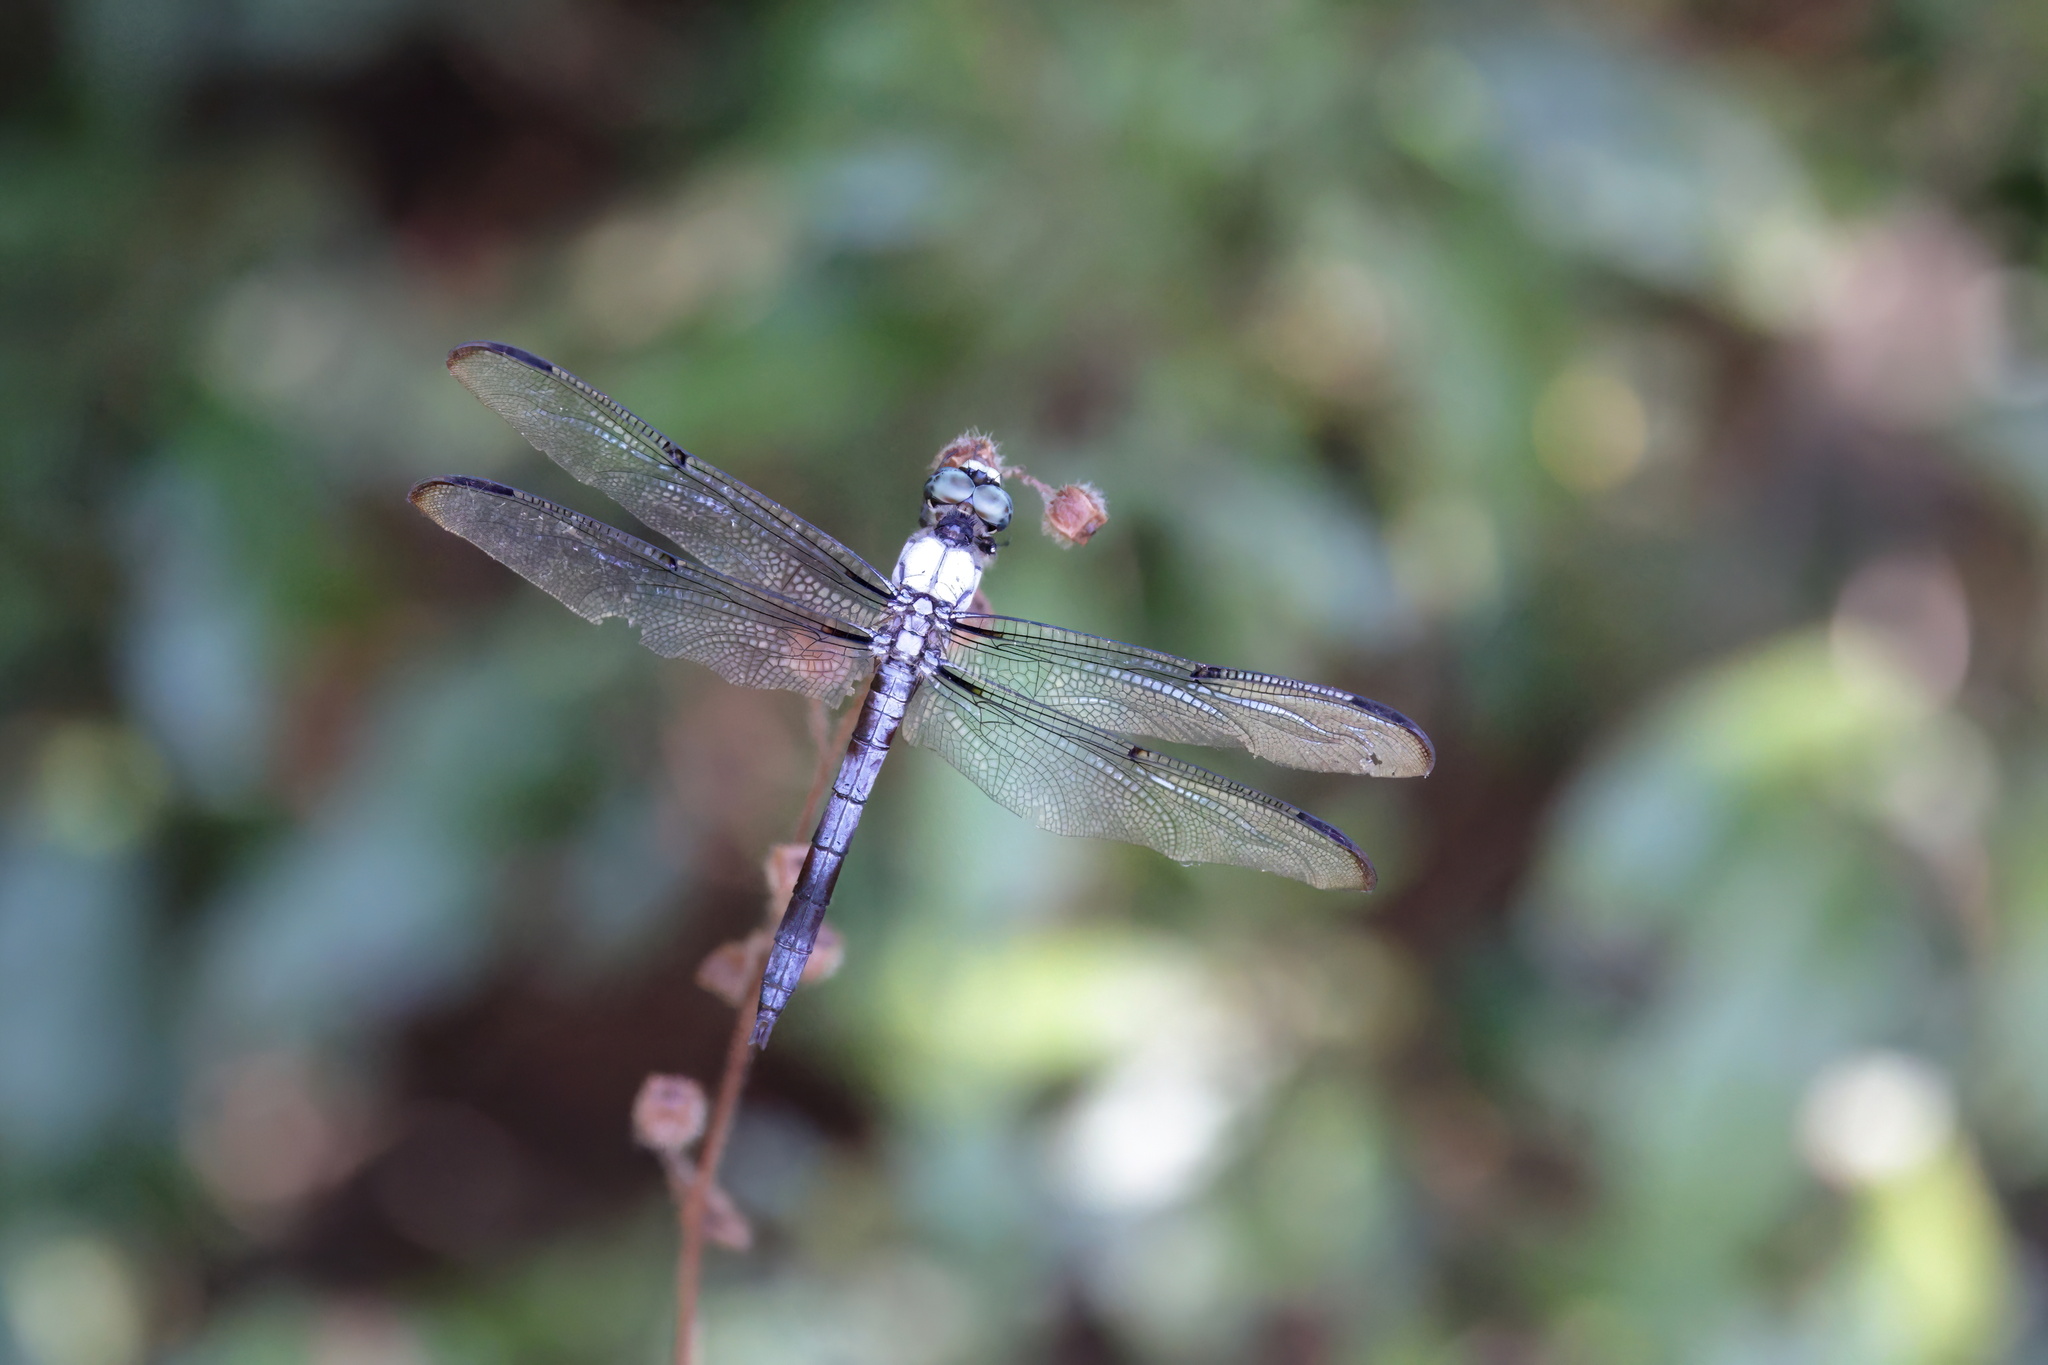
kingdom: Animalia
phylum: Arthropoda
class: Insecta
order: Odonata
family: Libellulidae
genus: Libellula
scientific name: Libellula vibrans
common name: Great blue skimmer
